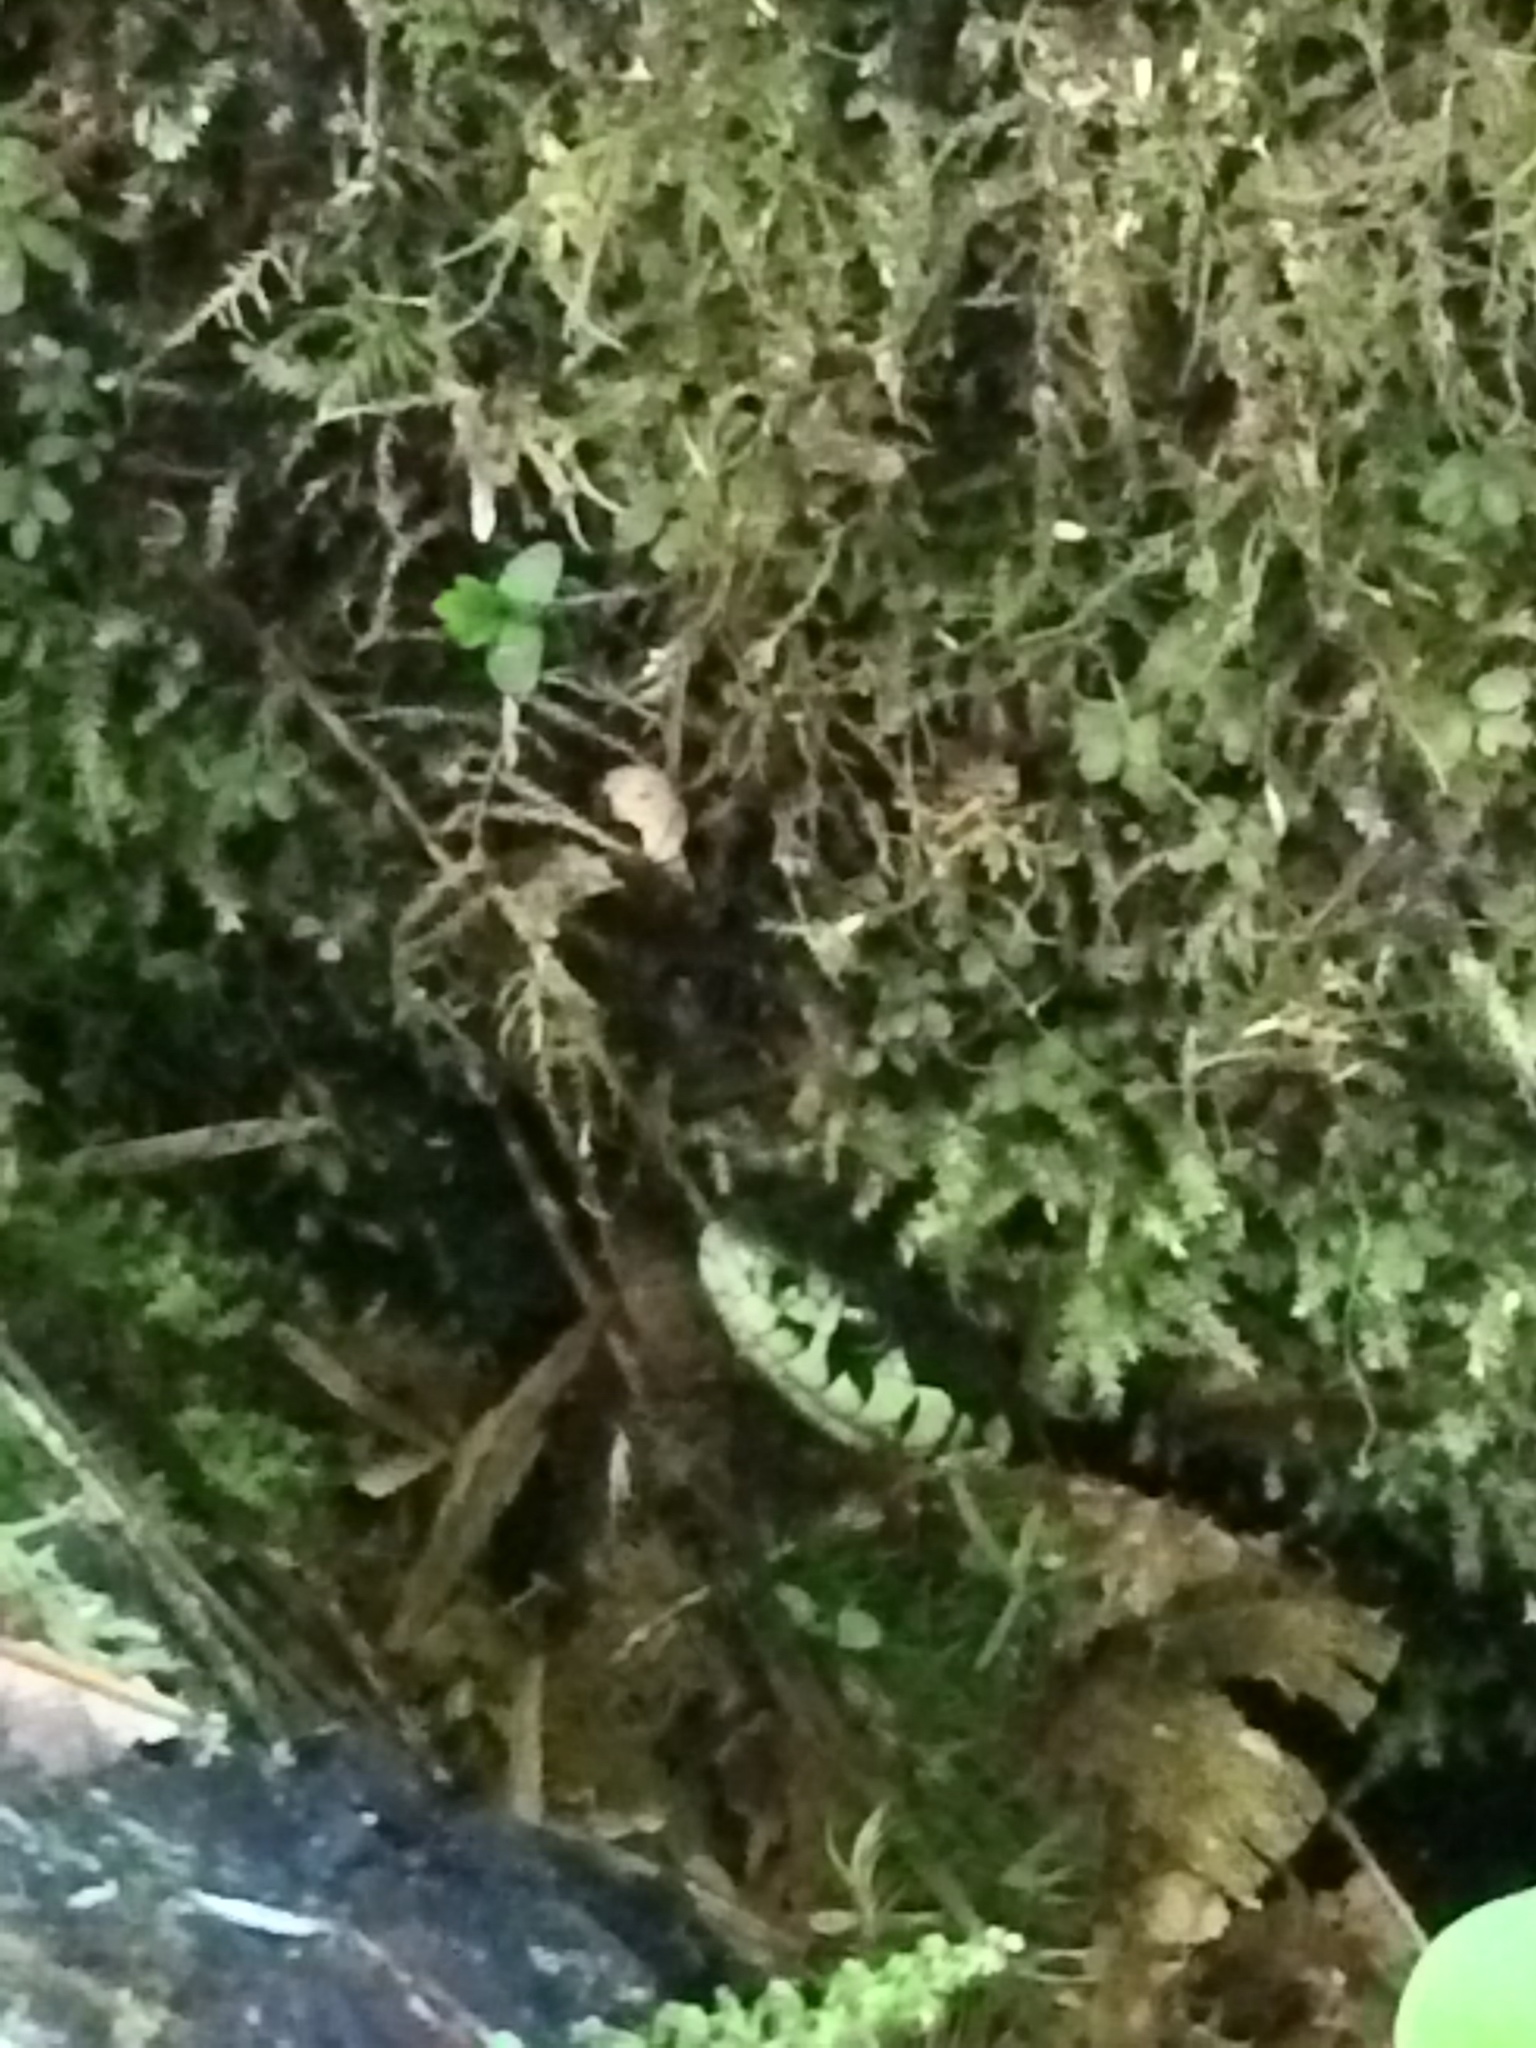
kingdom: Animalia
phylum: Chordata
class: Squamata
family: Colubridae
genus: Thamnophis
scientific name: Thamnophis sirtalis
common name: Common garter snake
